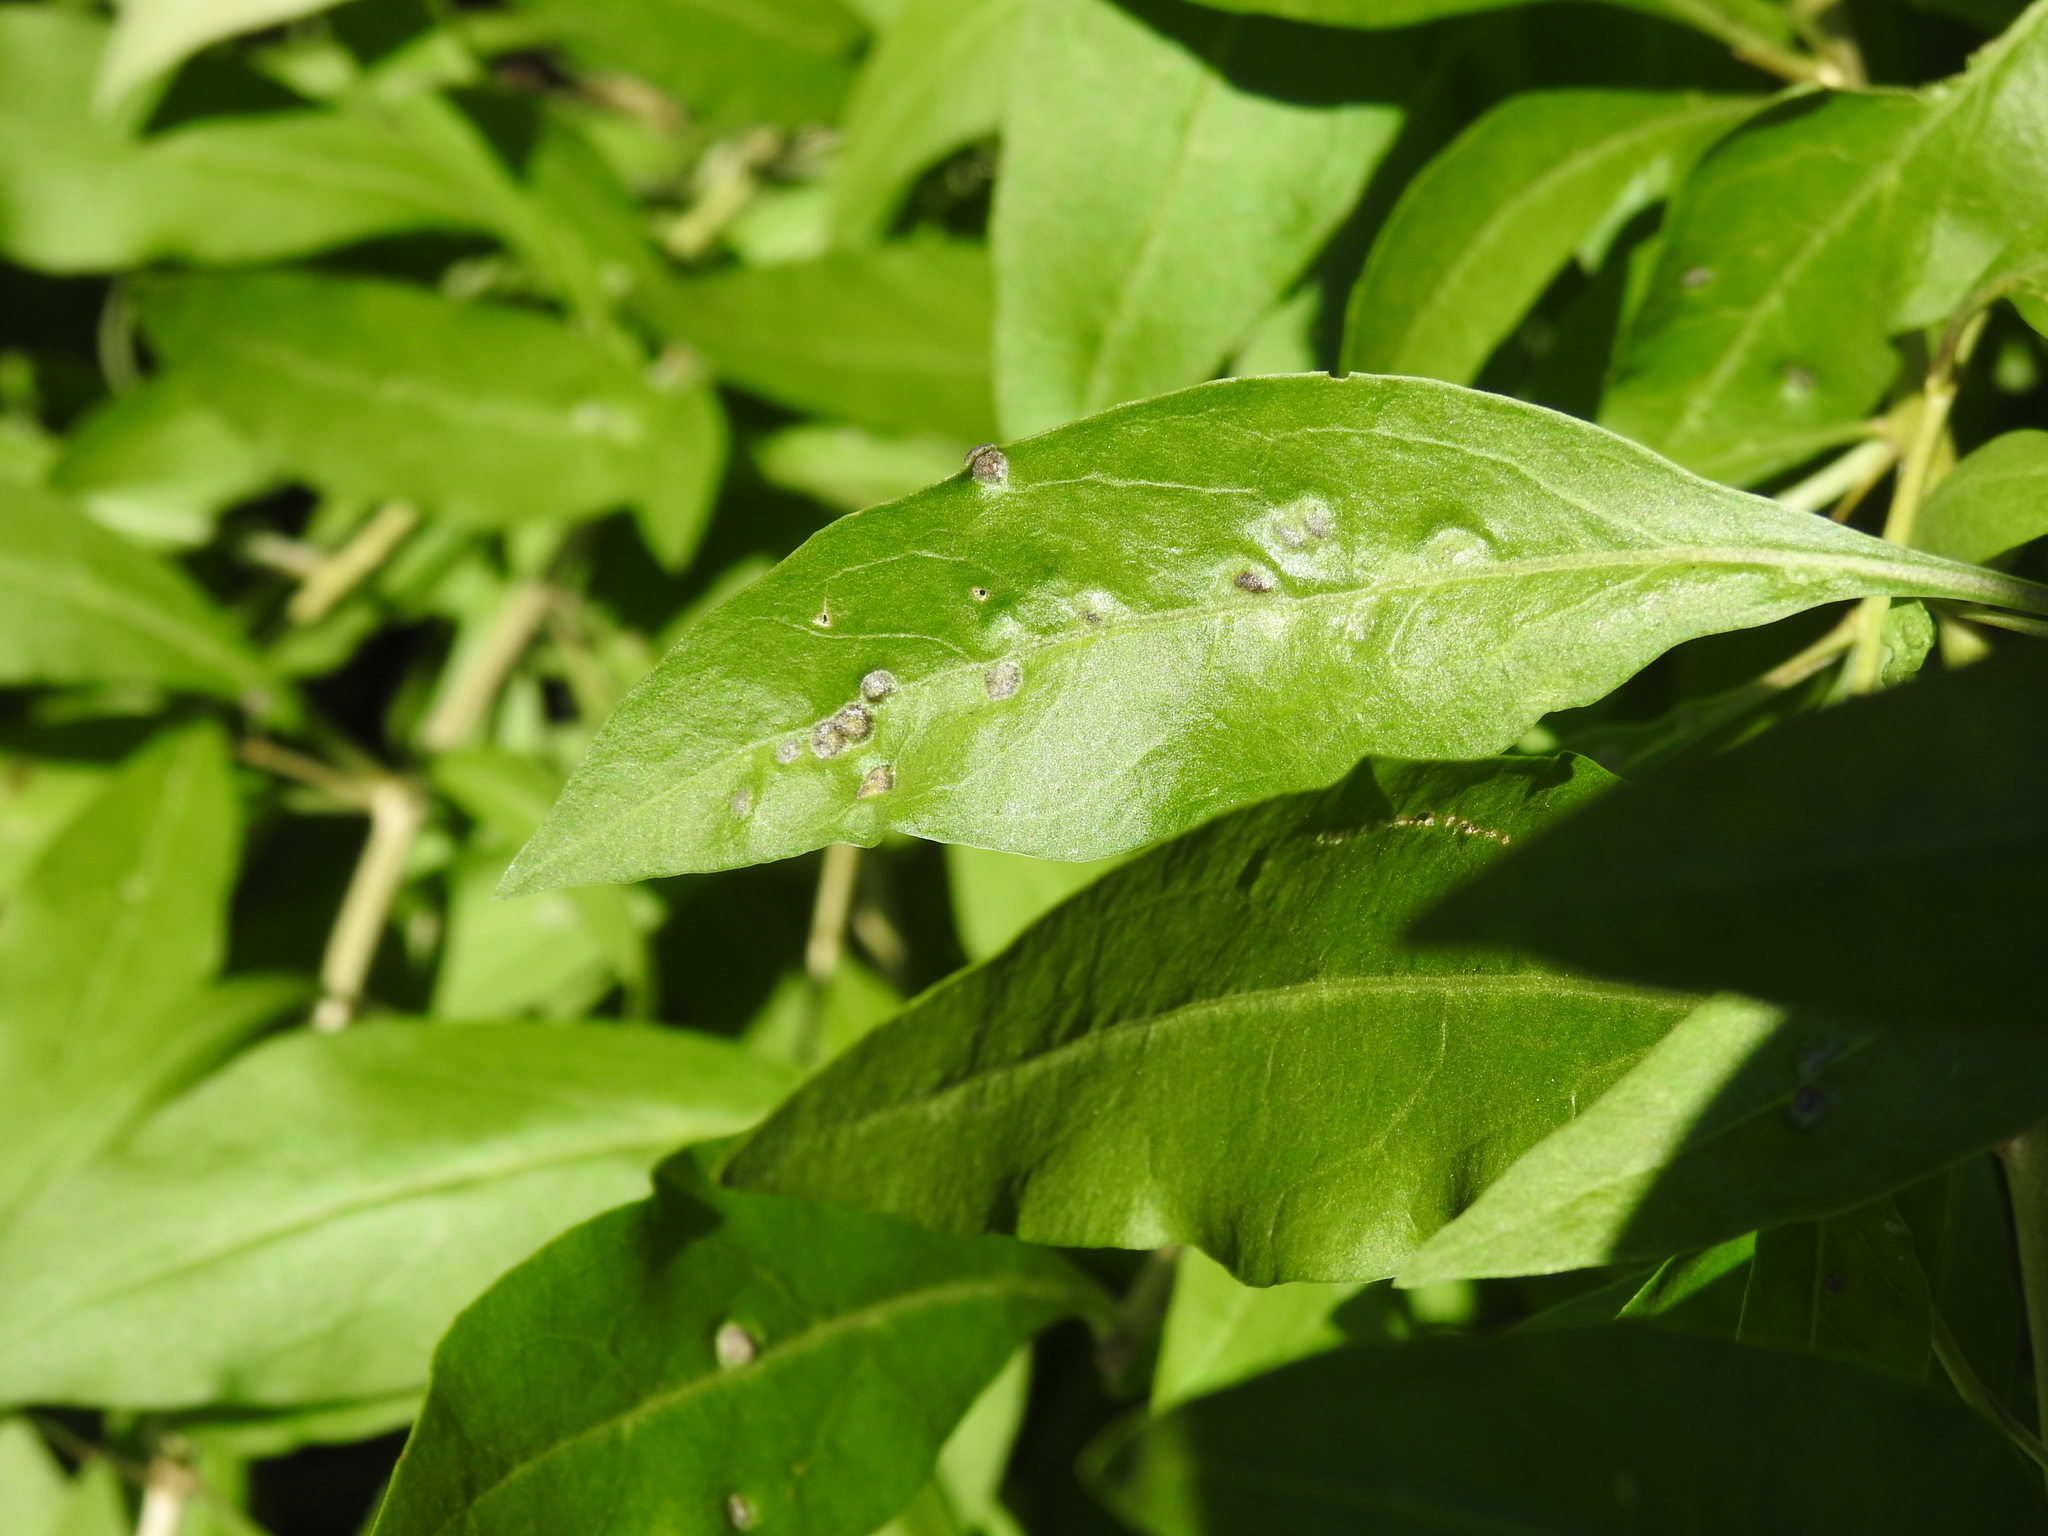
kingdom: Animalia
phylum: Arthropoda
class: Arachnida
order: Trombidiformes
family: Eriophyidae
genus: Aceria
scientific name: Aceria kuko
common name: Goji gall mite
